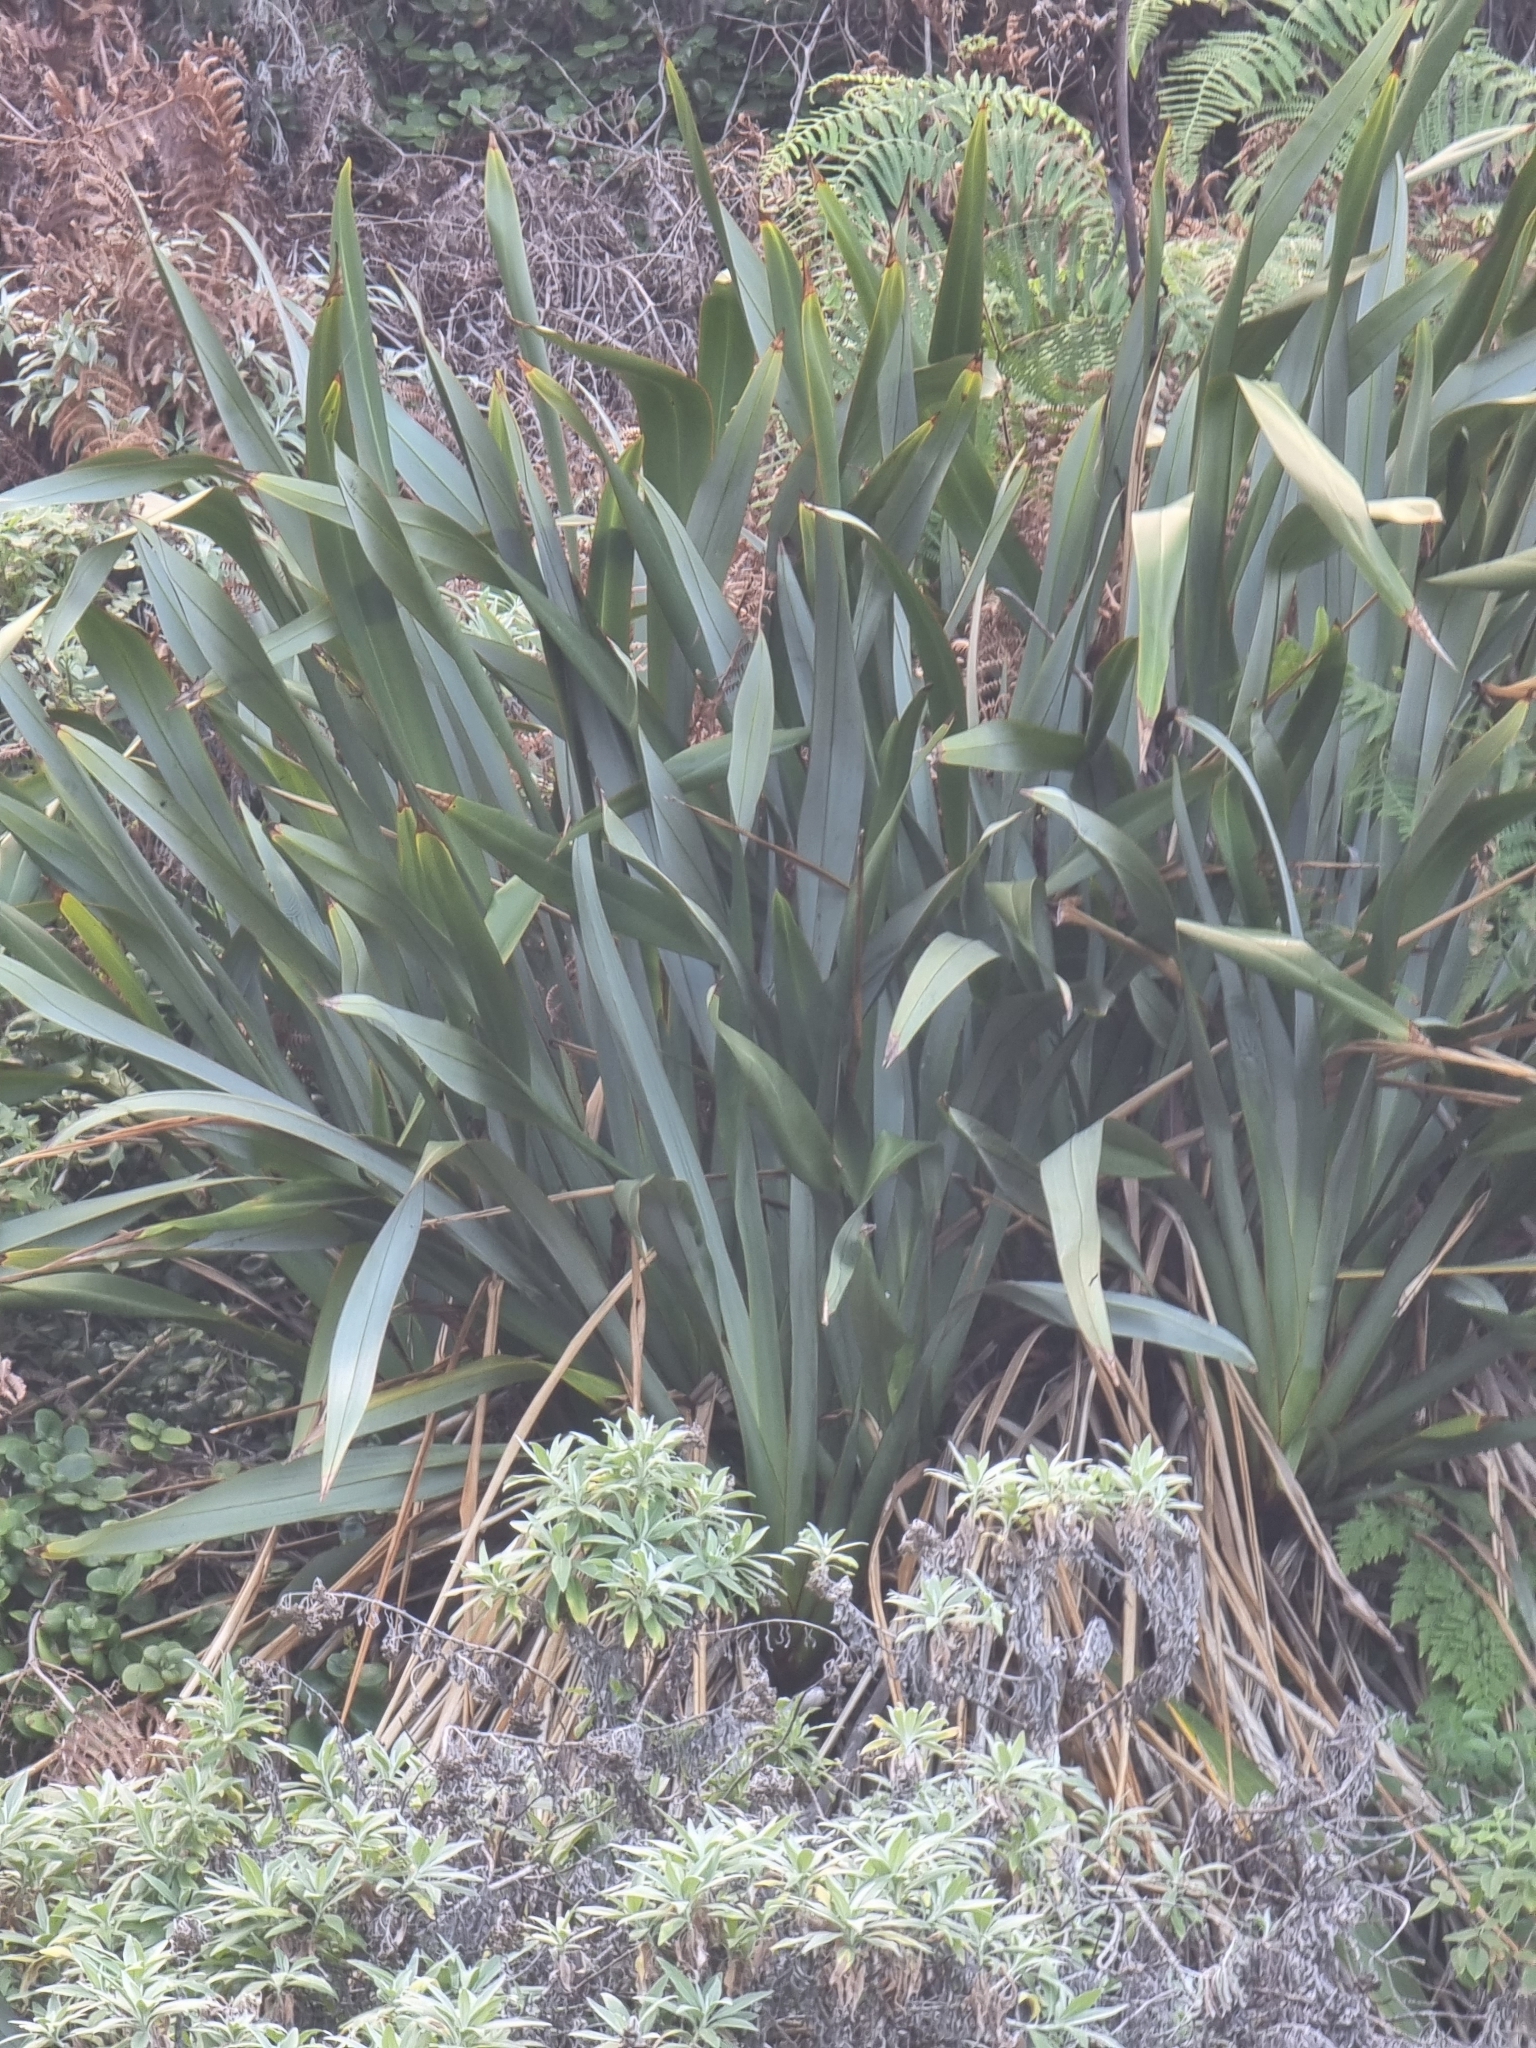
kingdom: Plantae
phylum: Tracheophyta
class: Liliopsida
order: Asparagales
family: Asphodelaceae
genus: Phormium
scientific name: Phormium tenax
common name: New zealand flax
